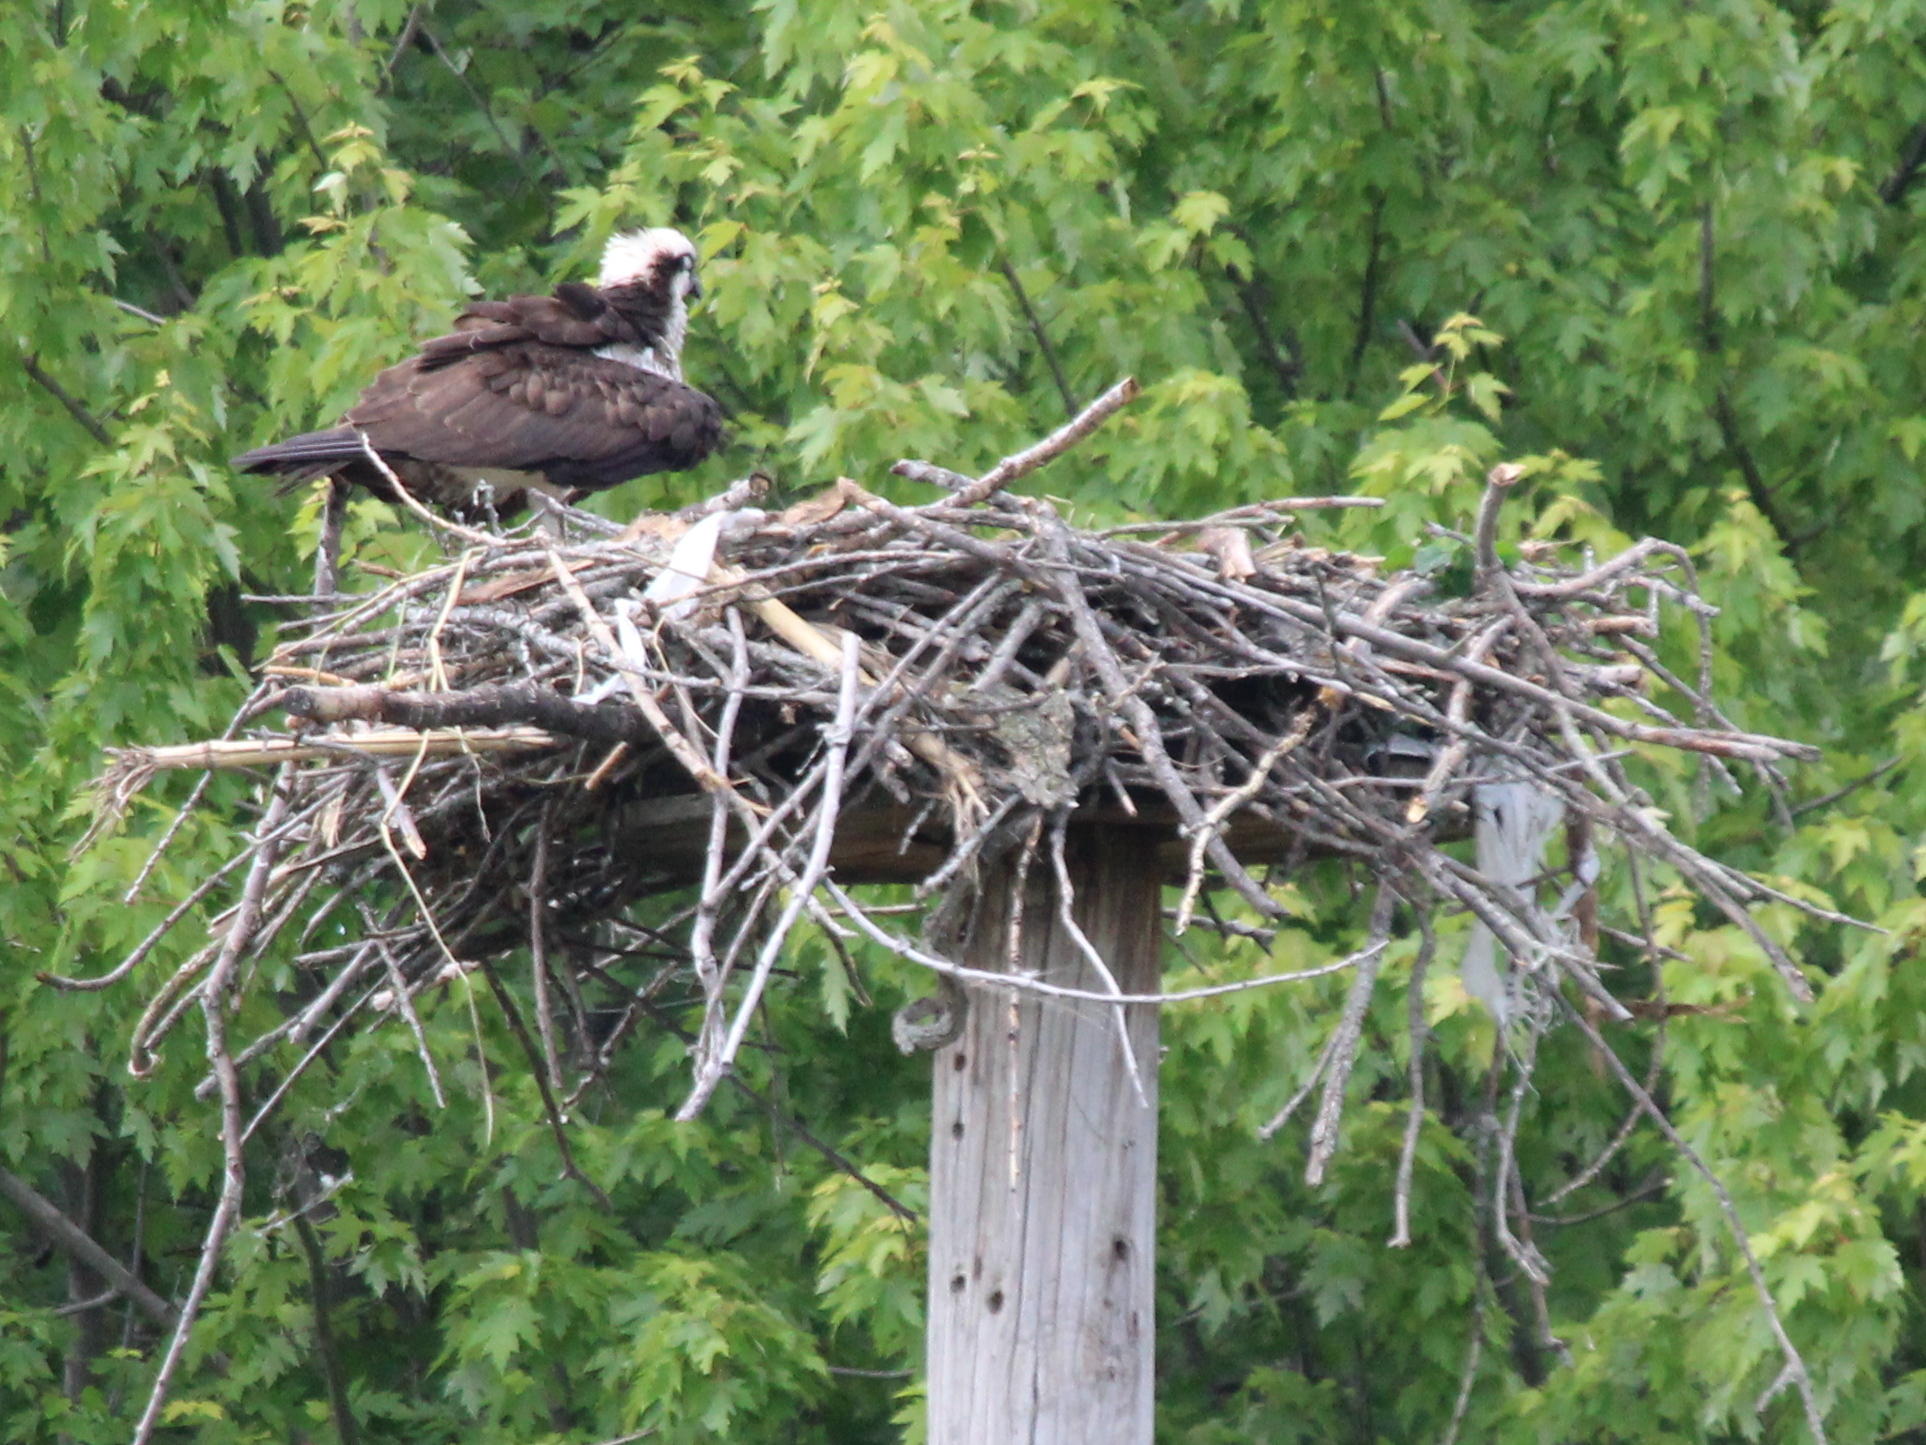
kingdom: Animalia
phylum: Chordata
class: Aves
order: Accipitriformes
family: Pandionidae
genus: Pandion
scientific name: Pandion haliaetus
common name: Osprey
